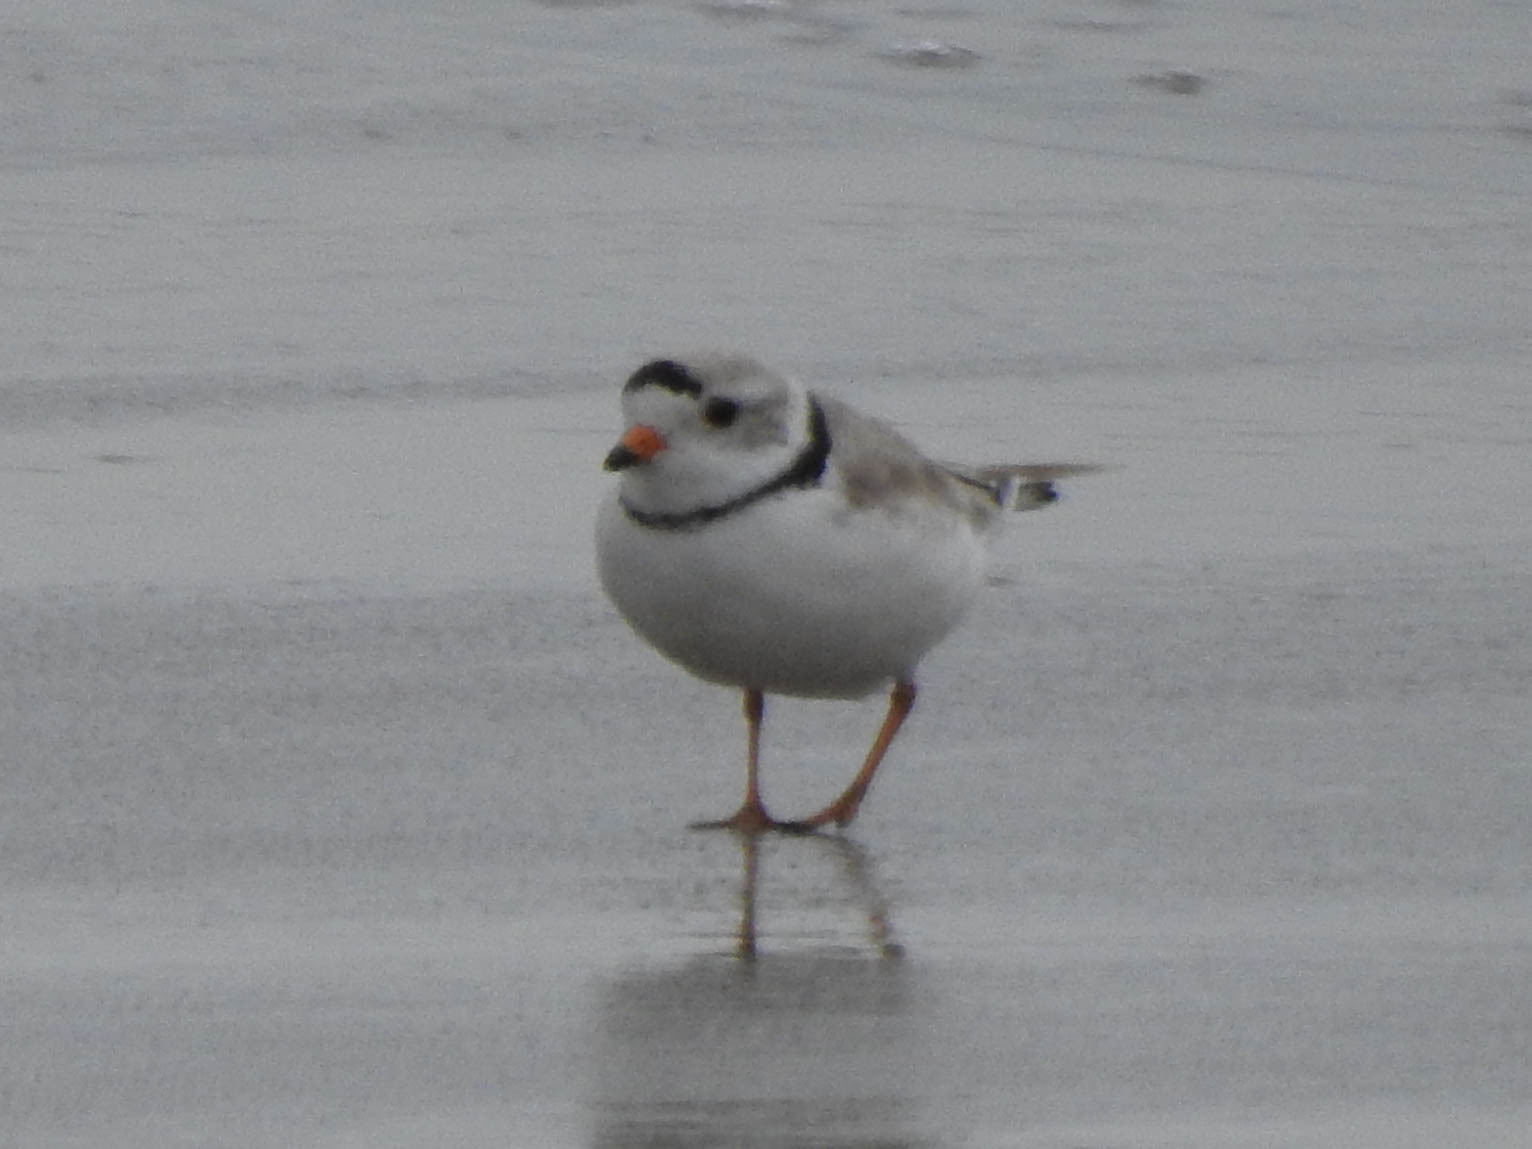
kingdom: Animalia
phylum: Chordata
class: Aves
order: Charadriiformes
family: Charadriidae
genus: Charadrius
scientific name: Charadrius melodus
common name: Piping plover
